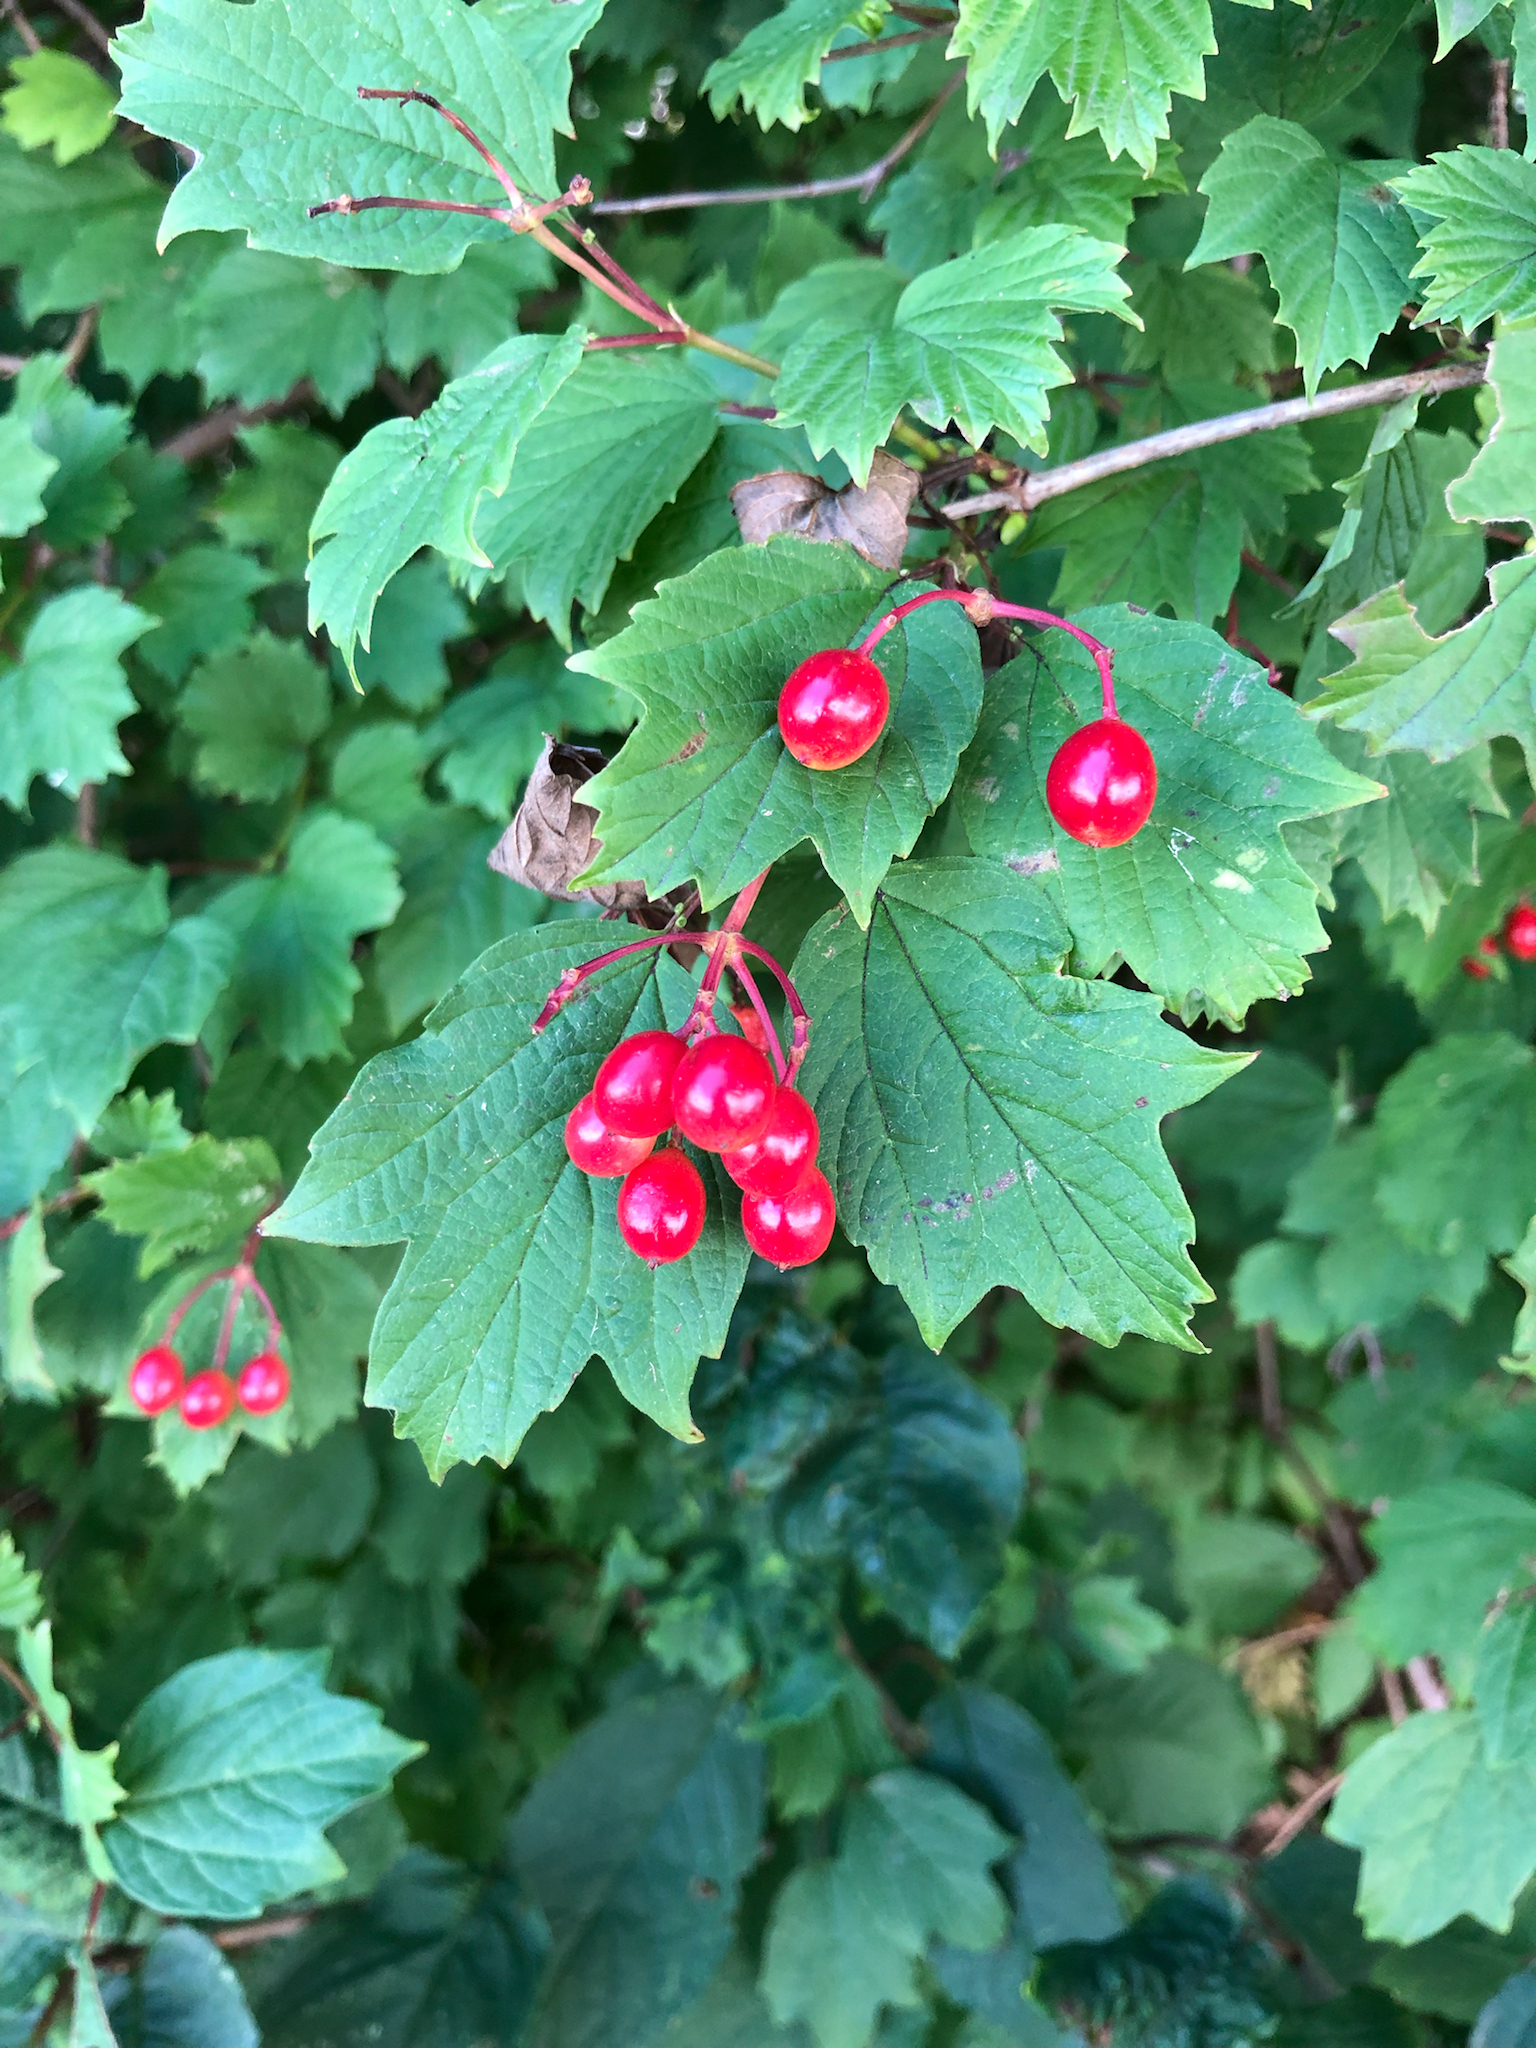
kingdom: Plantae
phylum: Tracheophyta
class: Magnoliopsida
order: Dipsacales
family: Viburnaceae
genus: Viburnum
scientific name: Viburnum opulus
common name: Guelder-rose
